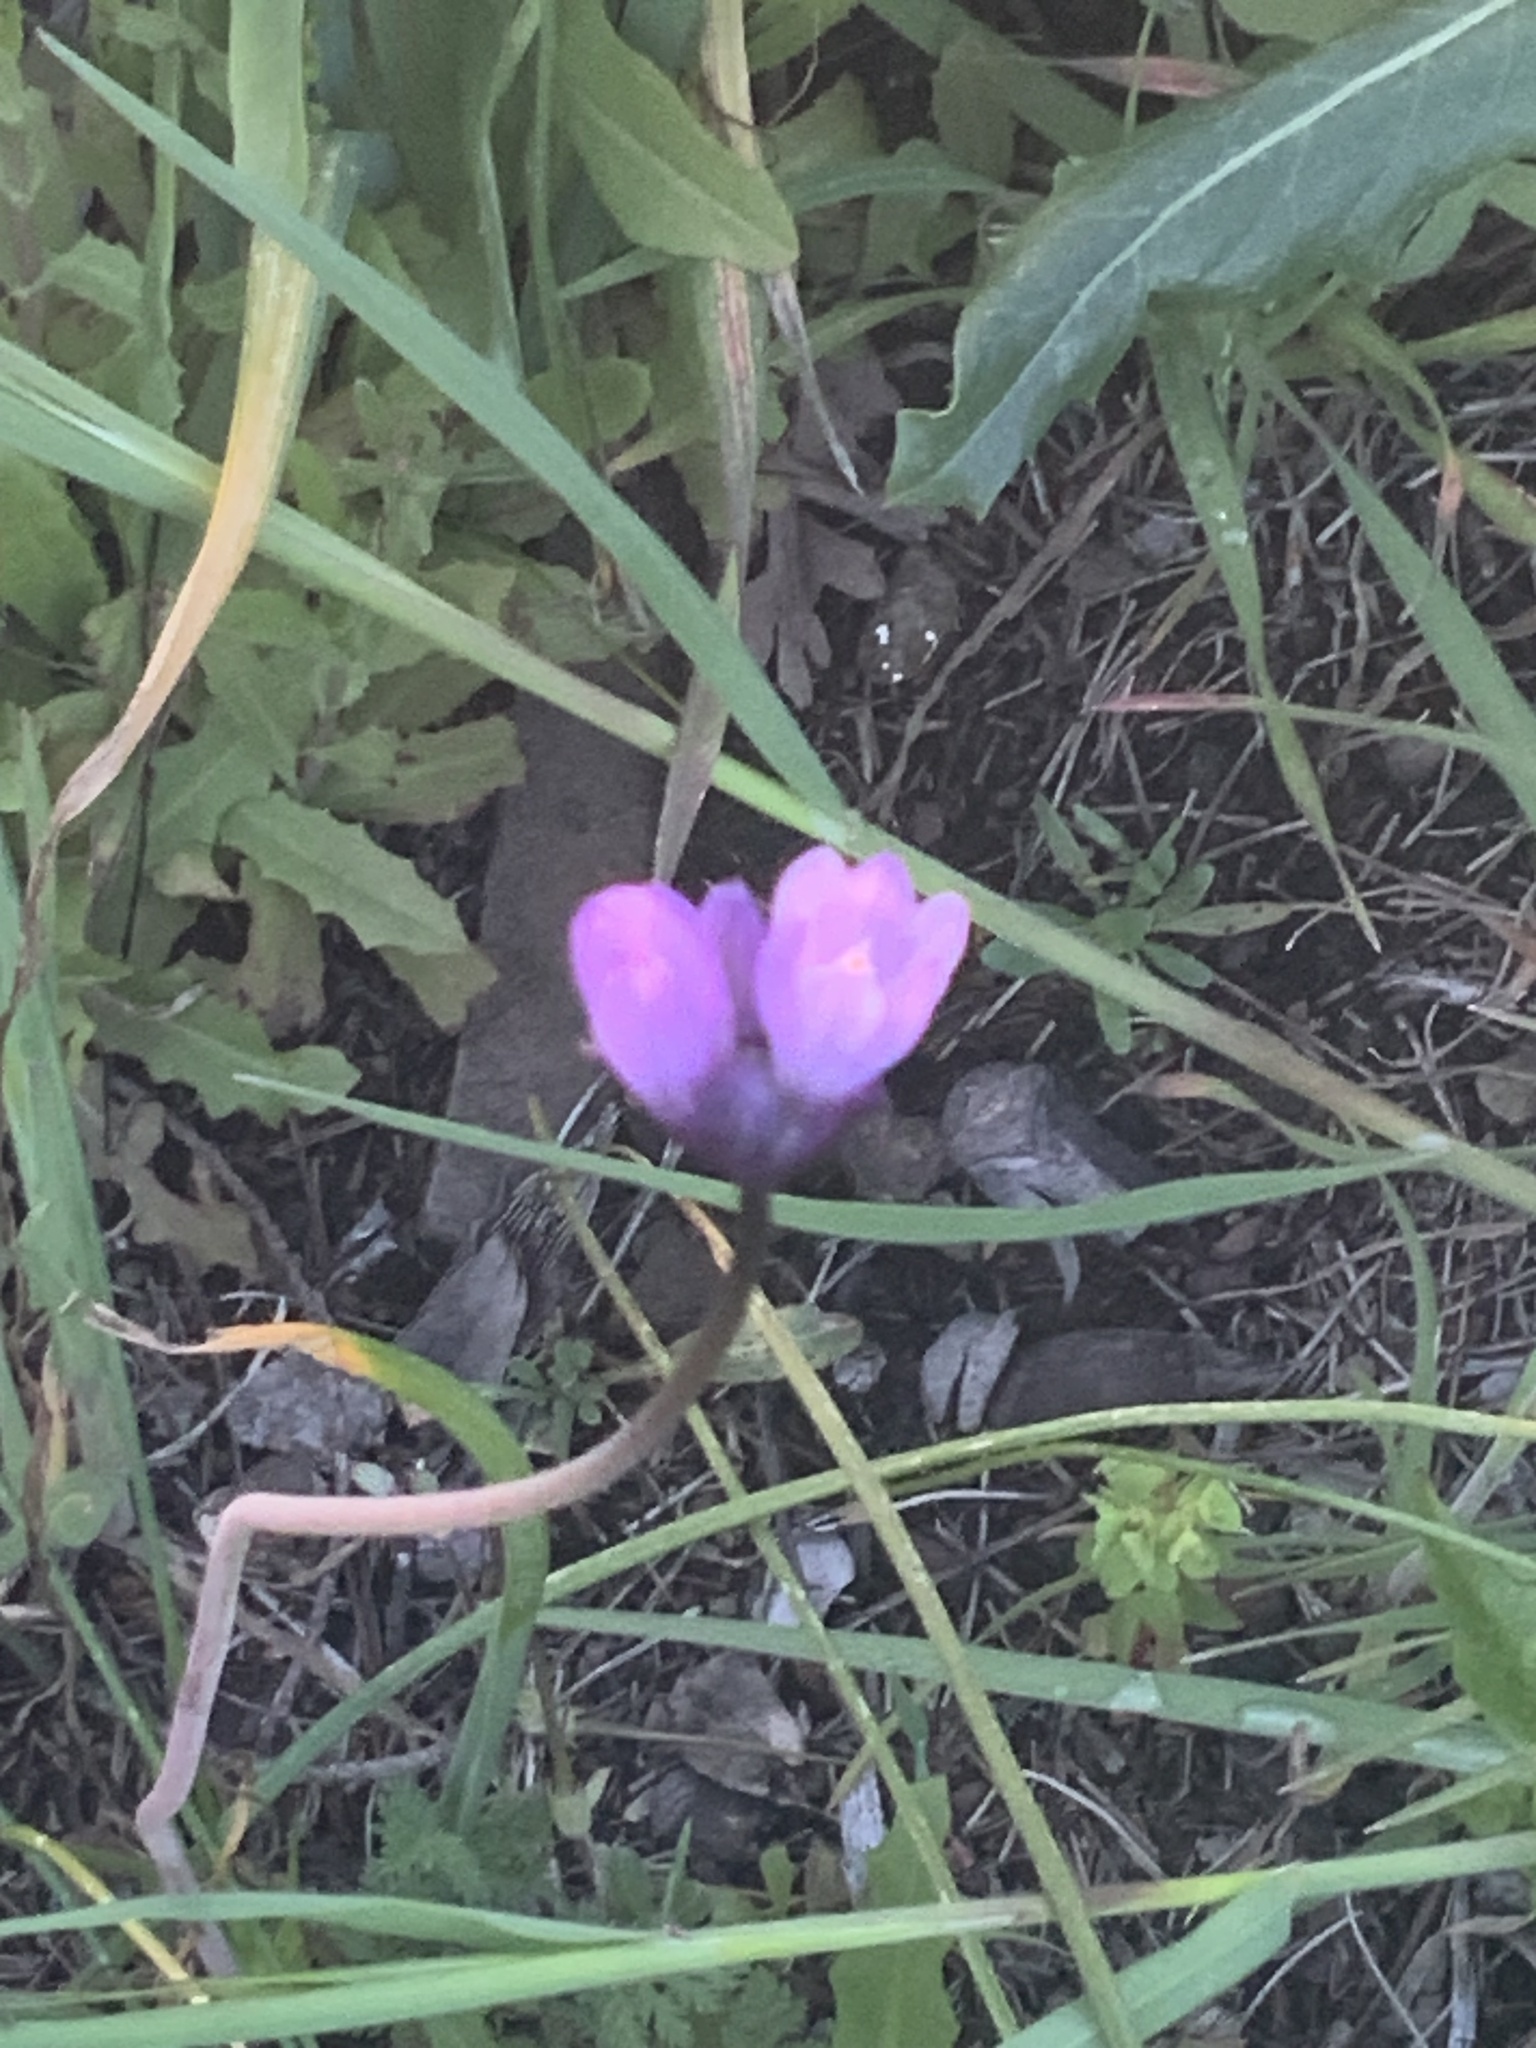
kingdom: Plantae
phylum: Tracheophyta
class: Liliopsida
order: Asparagales
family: Asparagaceae
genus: Dipterostemon
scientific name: Dipterostemon capitatus
